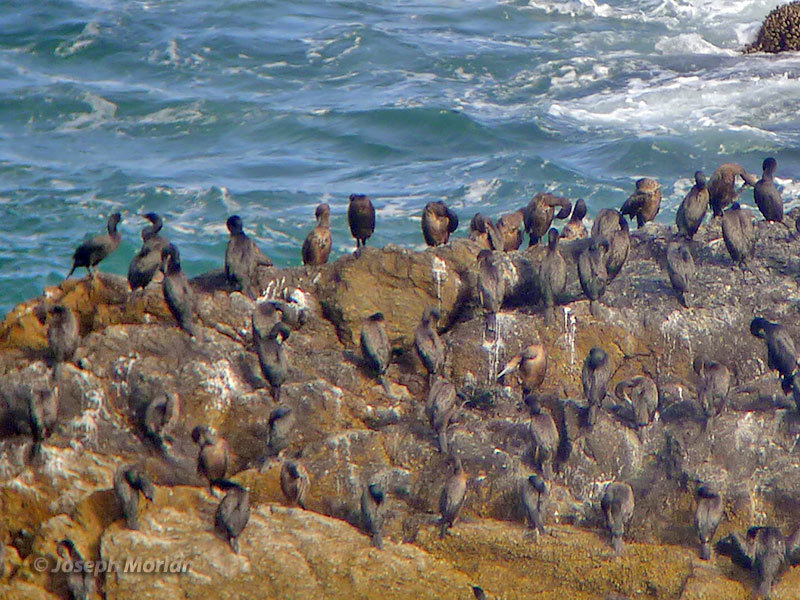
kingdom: Animalia
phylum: Chordata
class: Aves
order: Suliformes
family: Phalacrocoracidae
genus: Urile
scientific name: Urile penicillatus
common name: Brandt's cormorant
